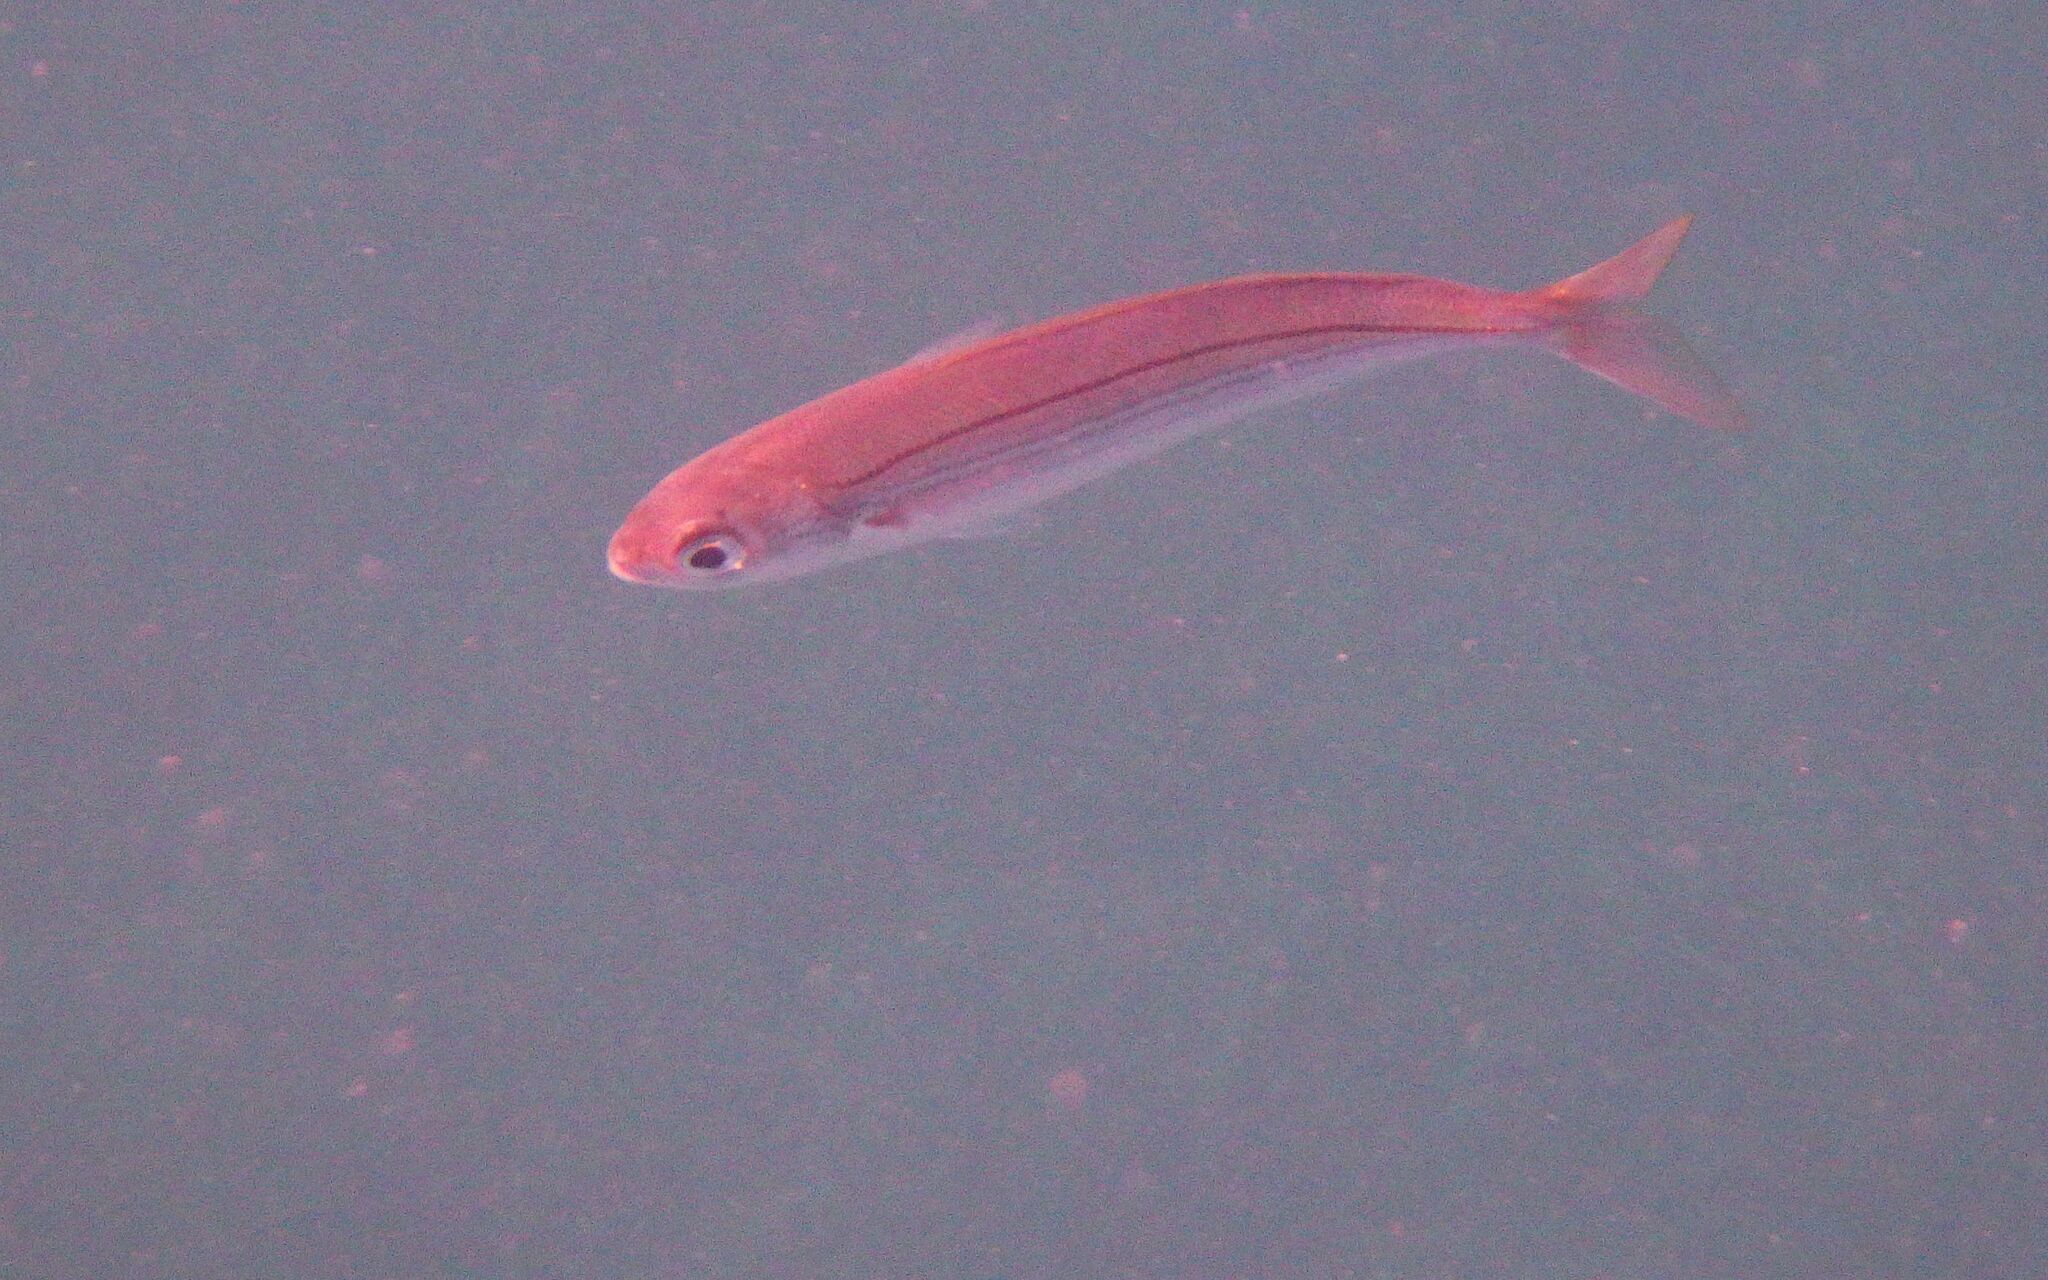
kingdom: Animalia
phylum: Chordata
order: Perciformes
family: Sparidae
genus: Boops
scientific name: Boops boops
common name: Bogue
